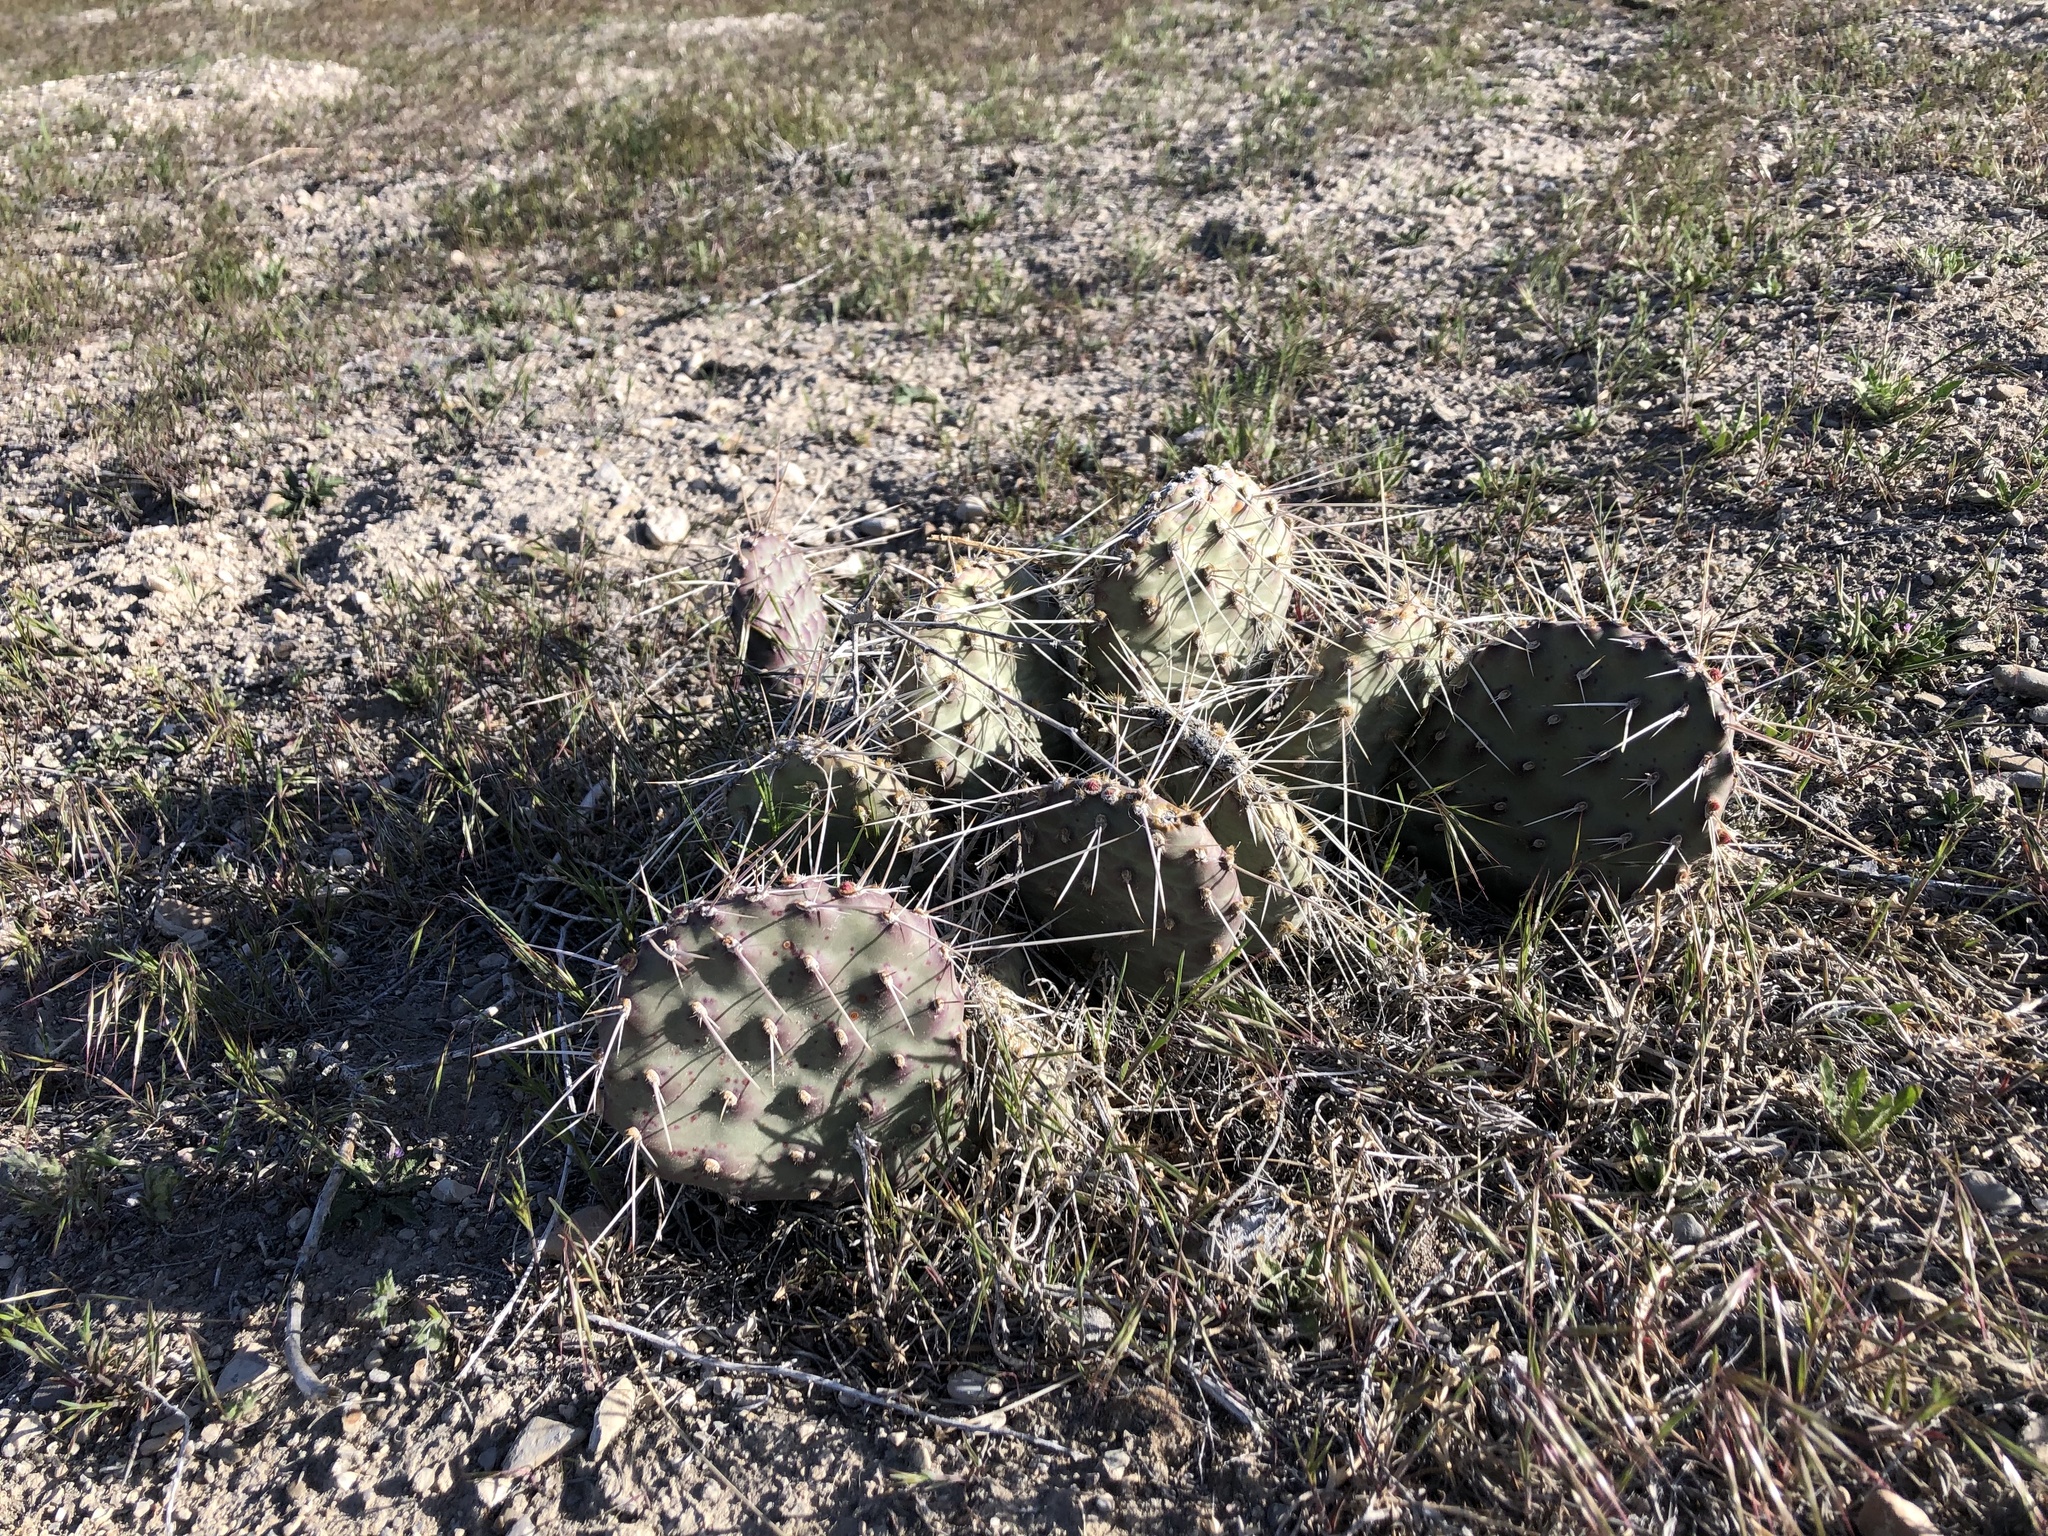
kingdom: Plantae
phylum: Tracheophyta
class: Magnoliopsida
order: Caryophyllales
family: Cactaceae
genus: Opuntia
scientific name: Opuntia polyacantha
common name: Plains prickly-pear
